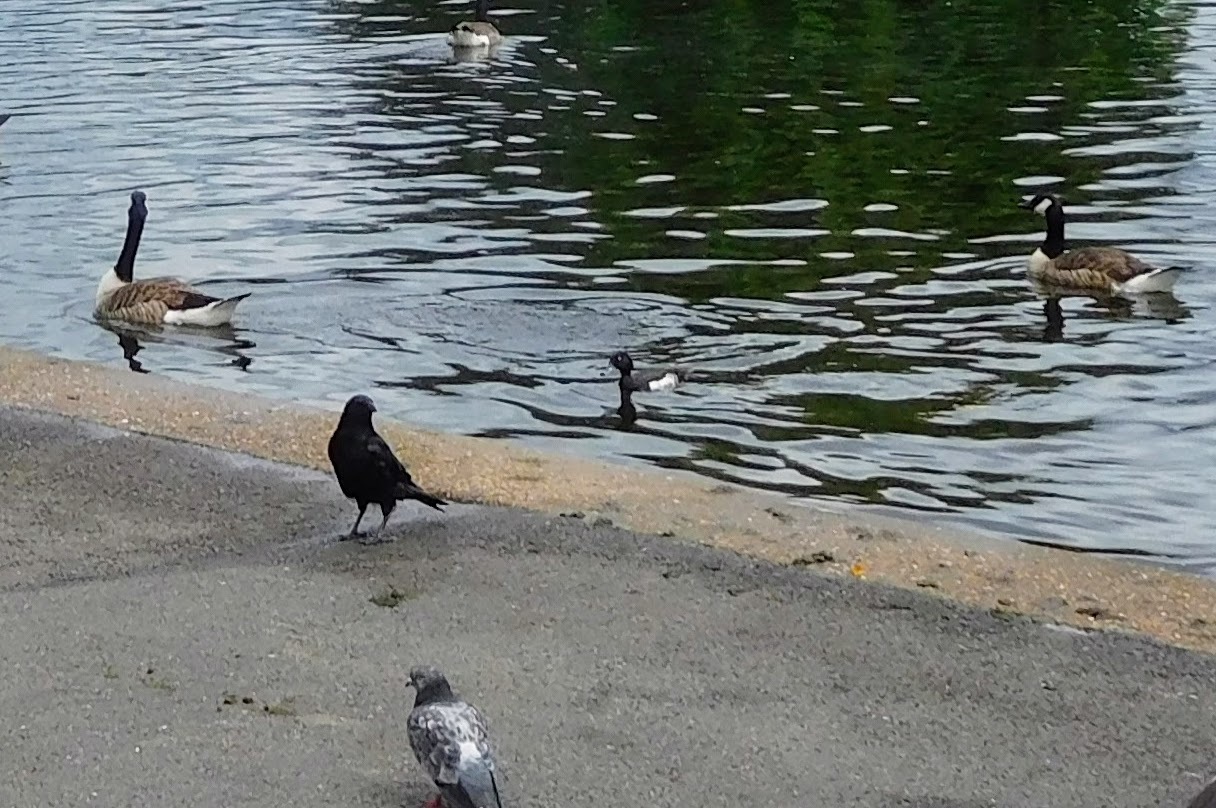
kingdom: Animalia
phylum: Chordata
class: Aves
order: Anseriformes
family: Anatidae
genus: Aythya
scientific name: Aythya fuligula
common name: Tufted duck
